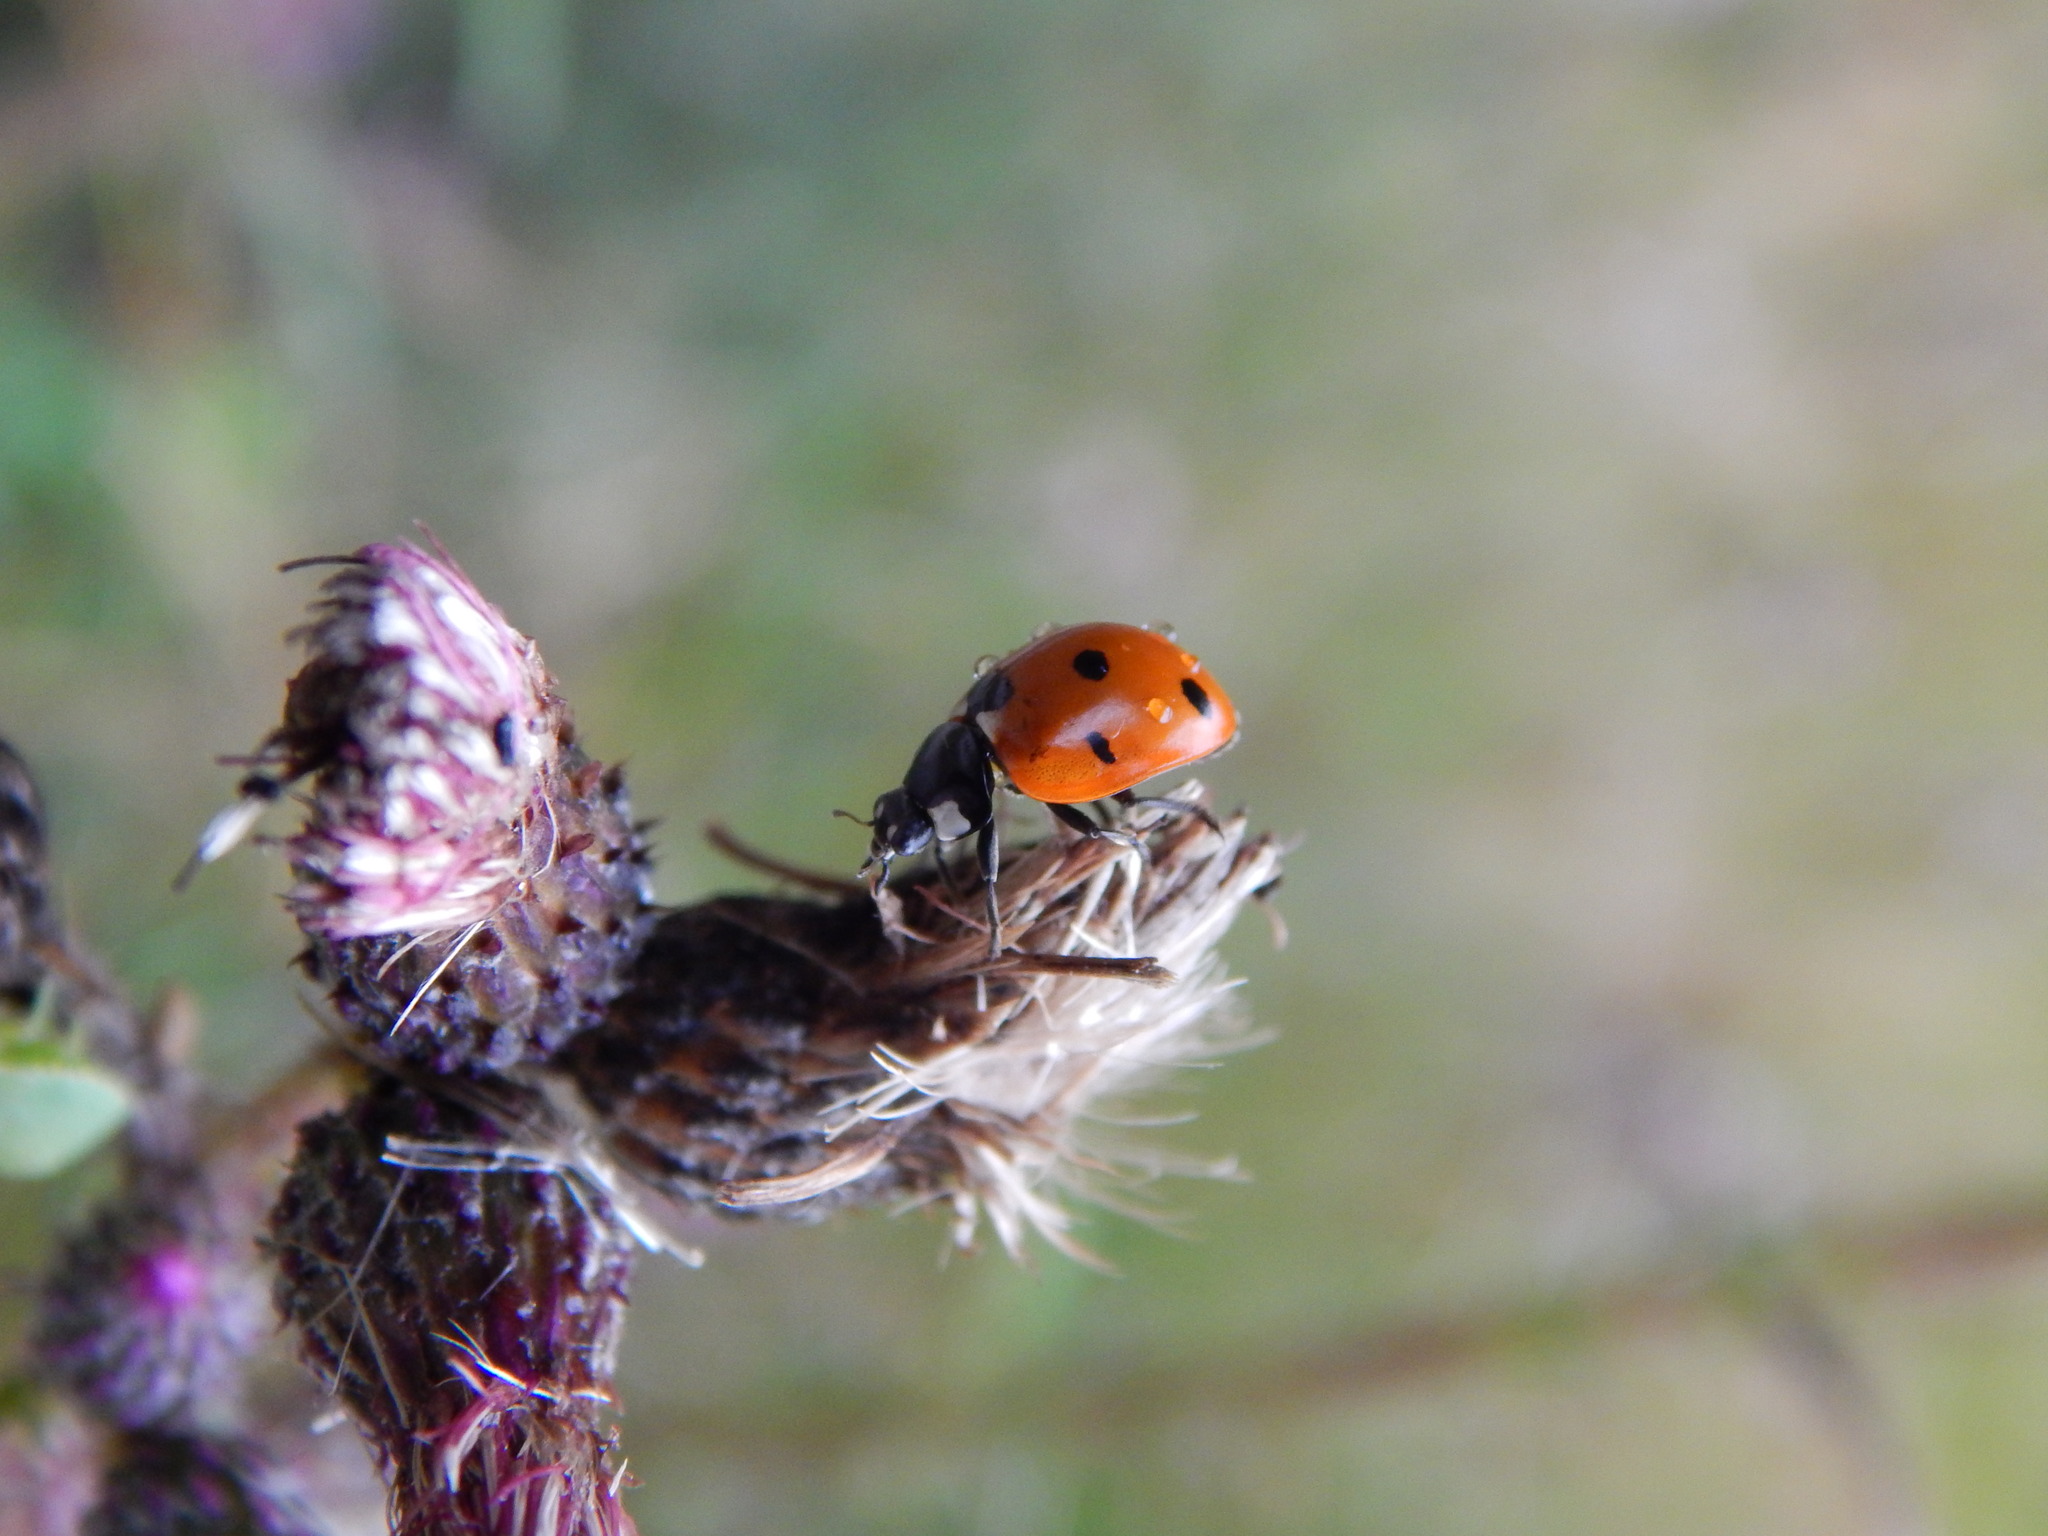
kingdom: Animalia
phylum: Arthropoda
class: Insecta
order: Coleoptera
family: Coccinellidae
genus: Coccinella
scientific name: Coccinella septempunctata
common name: Sevenspotted lady beetle
